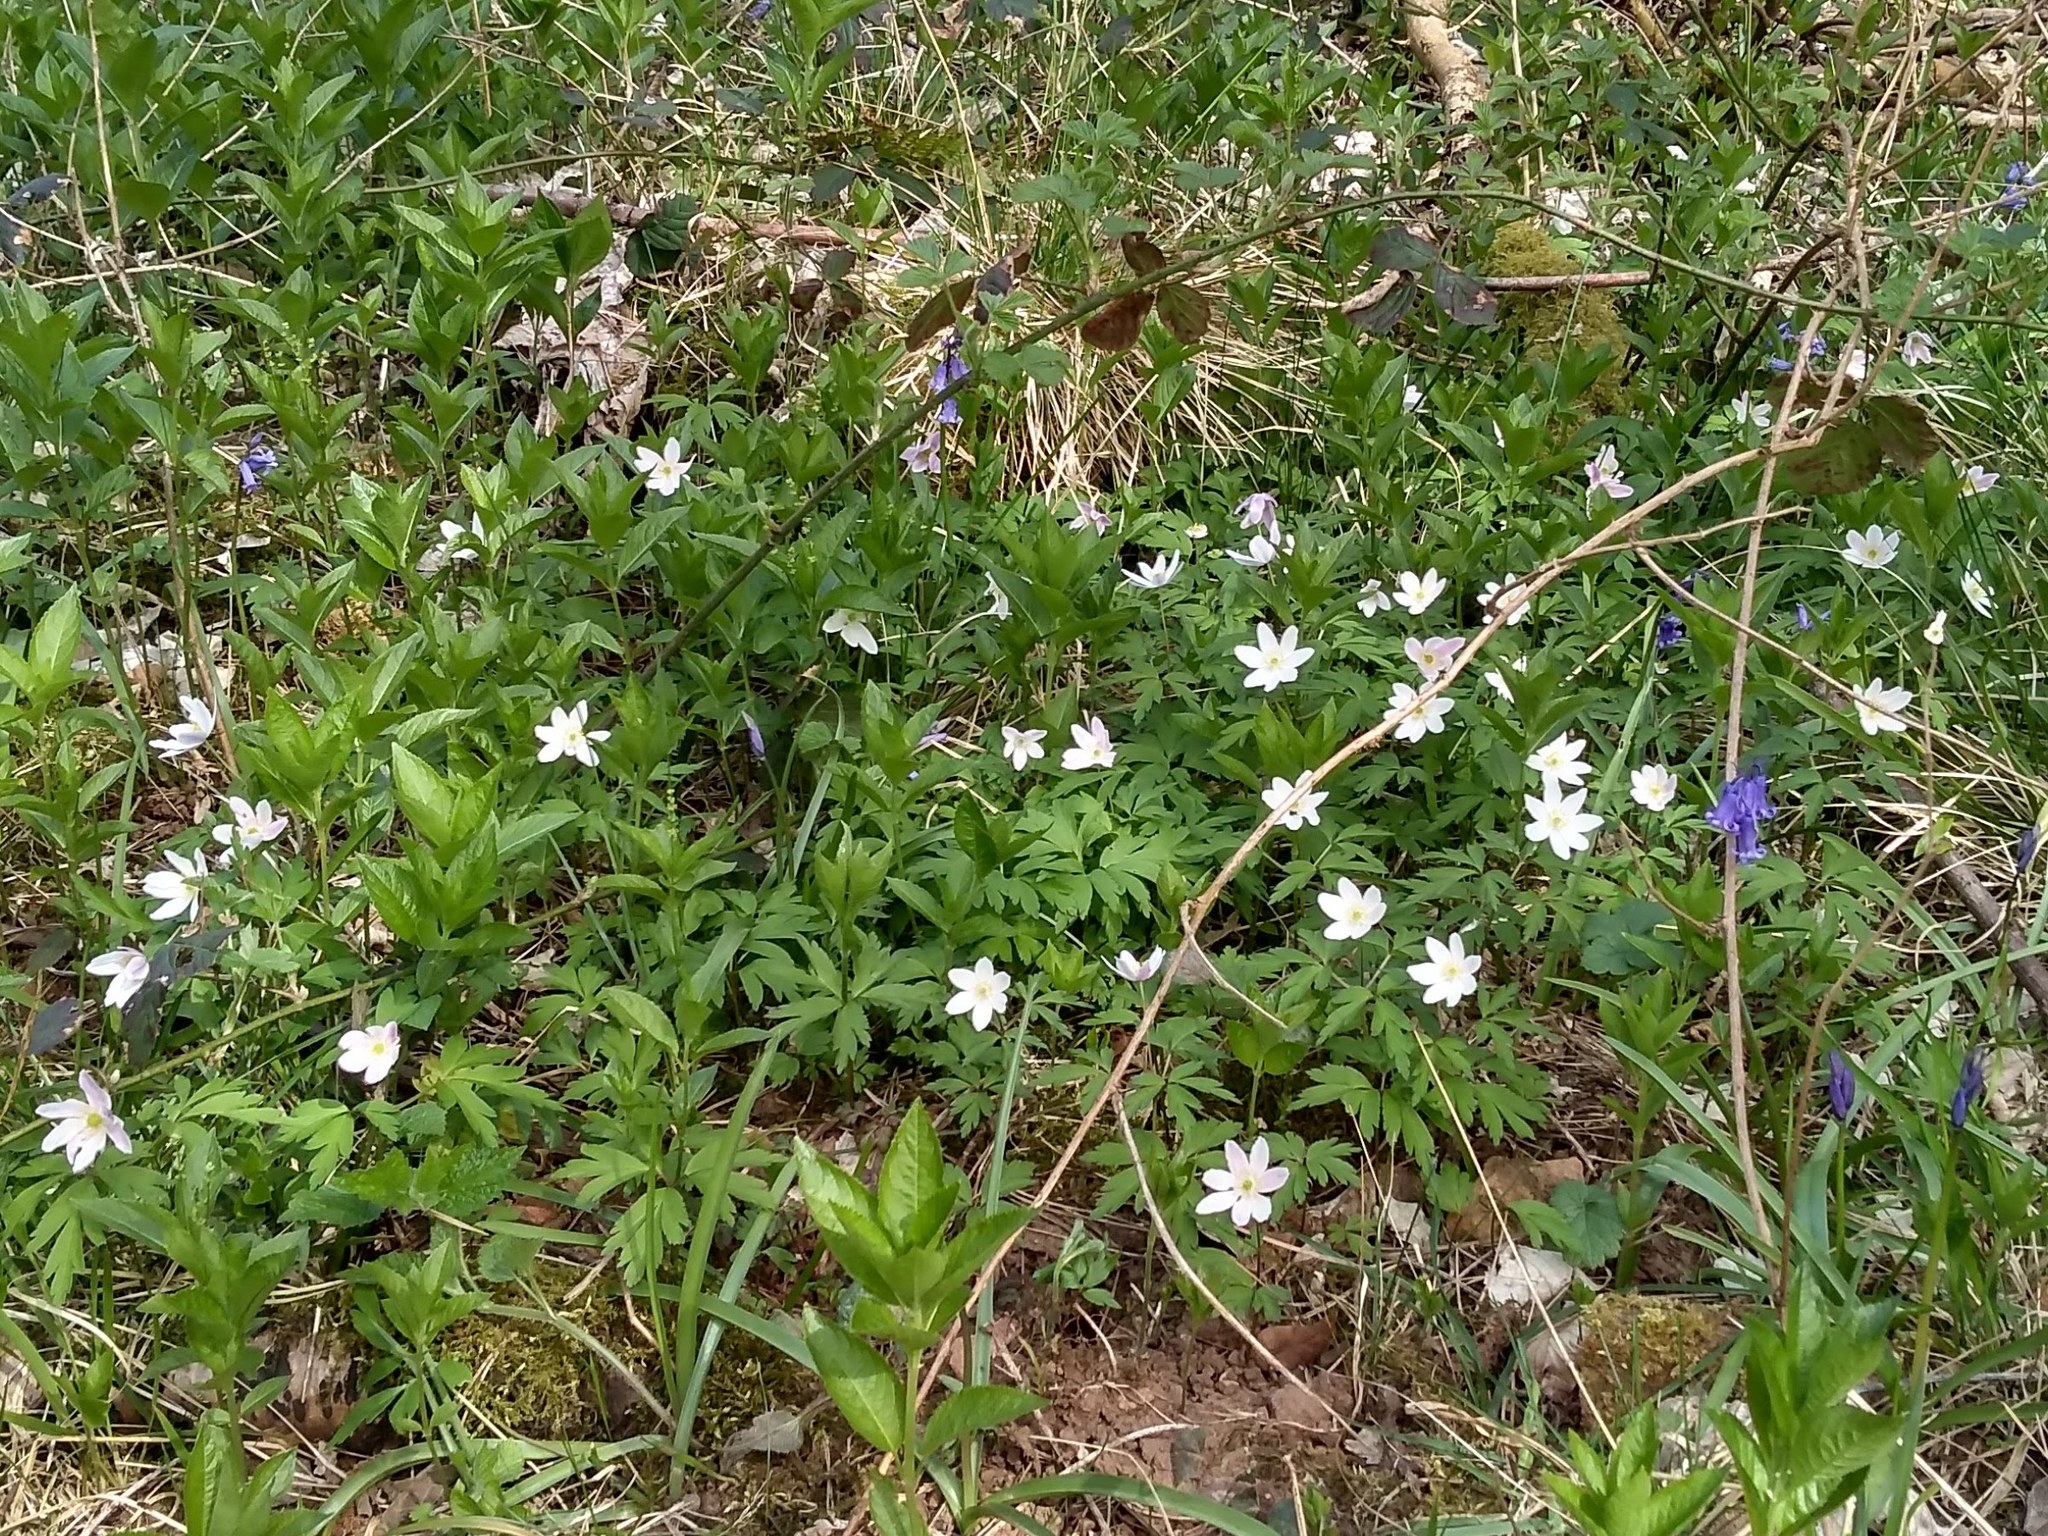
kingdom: Plantae
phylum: Tracheophyta
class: Magnoliopsida
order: Ranunculales
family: Ranunculaceae
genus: Anemone
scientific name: Anemone nemorosa
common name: Wood anemone
